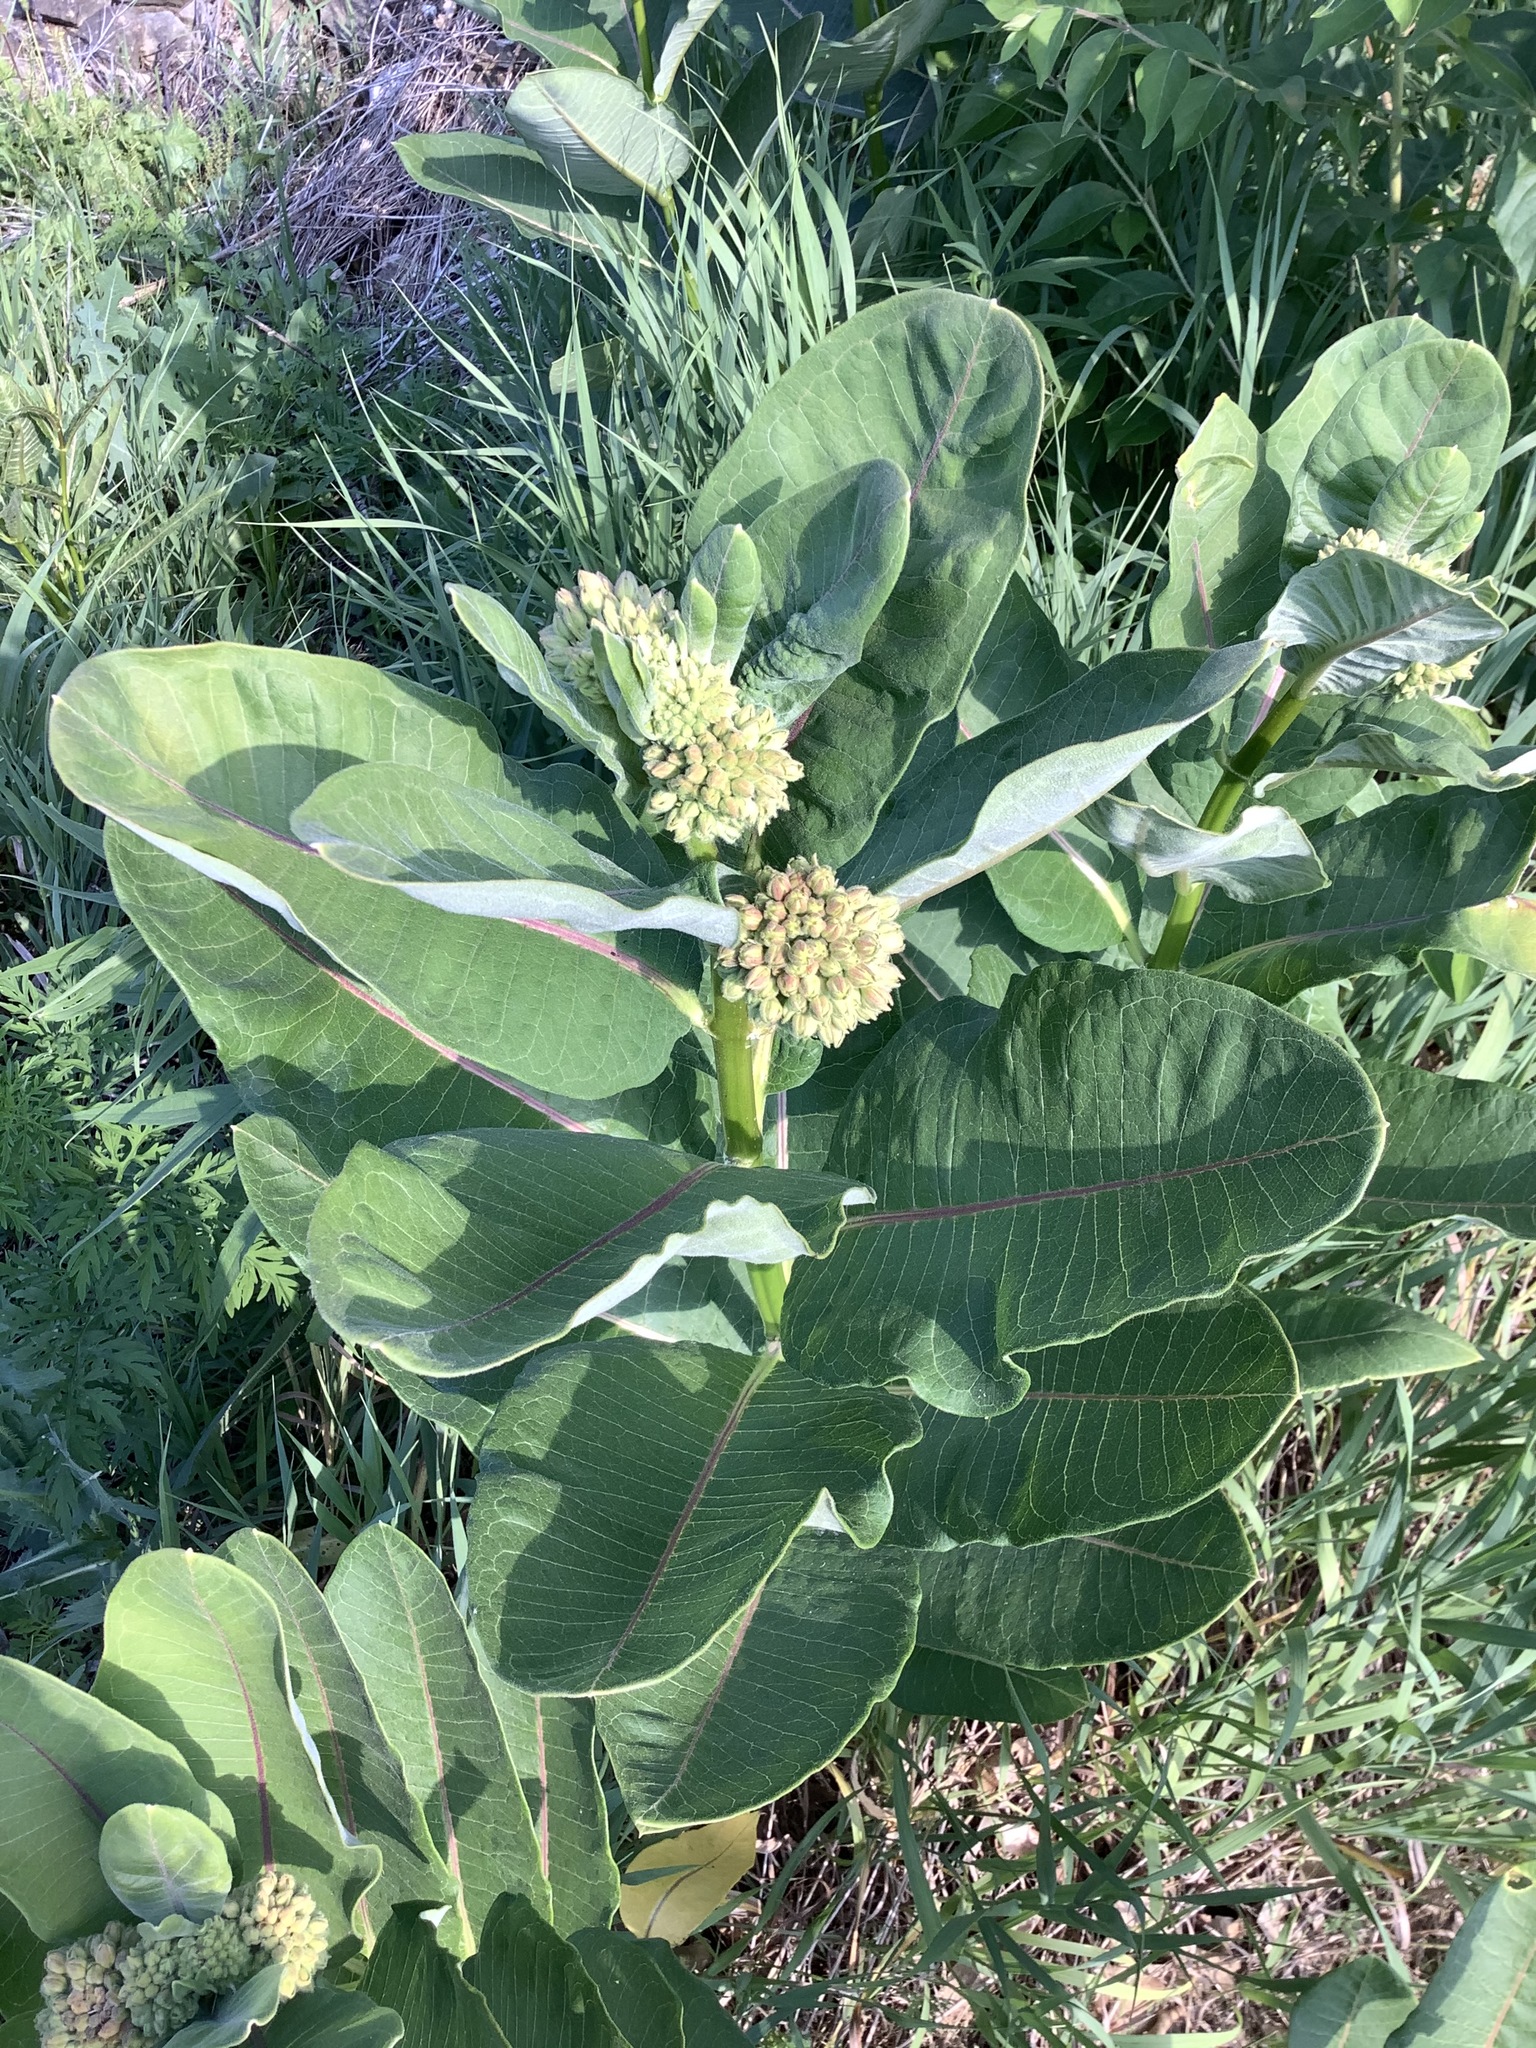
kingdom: Plantae
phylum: Tracheophyta
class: Magnoliopsida
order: Gentianales
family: Apocynaceae
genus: Asclepias
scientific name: Asclepias syriaca
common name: Common milkweed
